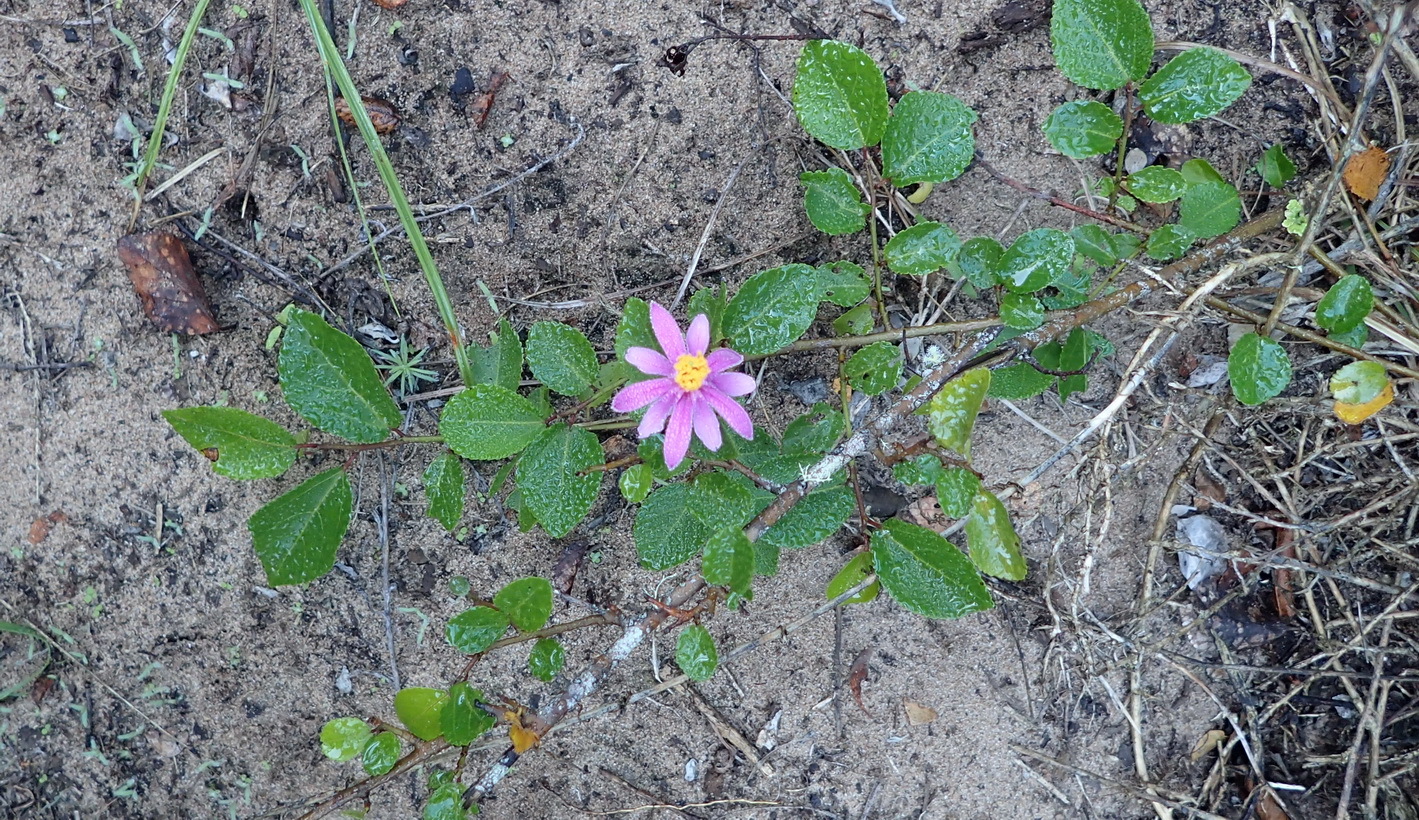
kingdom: Plantae
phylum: Tracheophyta
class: Magnoliopsida
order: Malvales
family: Malvaceae
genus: Grewia
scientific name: Grewia occidentalis
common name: Crossberry
